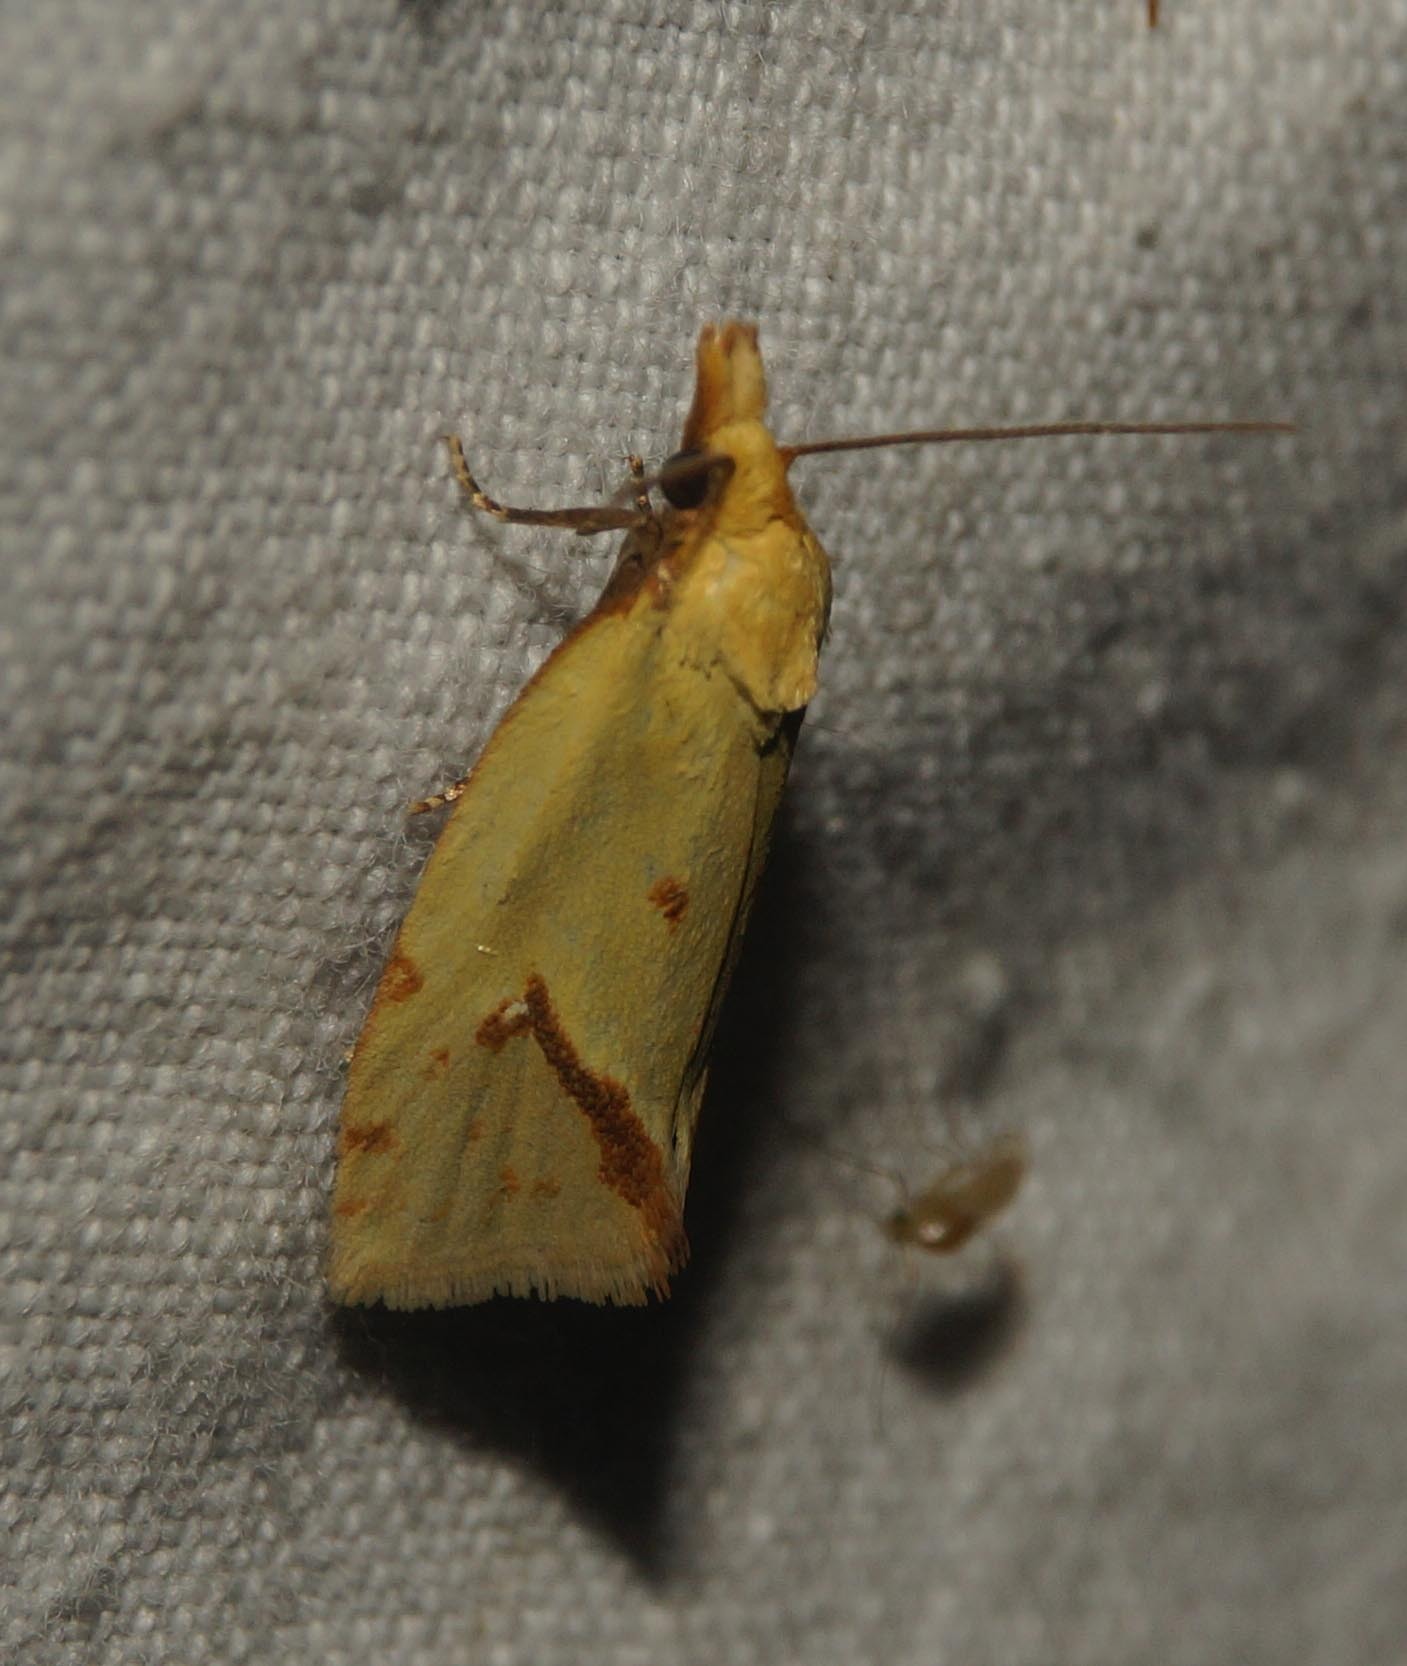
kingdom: Animalia
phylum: Arthropoda
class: Insecta
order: Lepidoptera
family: Tortricidae
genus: Agapeta
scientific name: Agapeta hamana
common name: Common yellow conch
